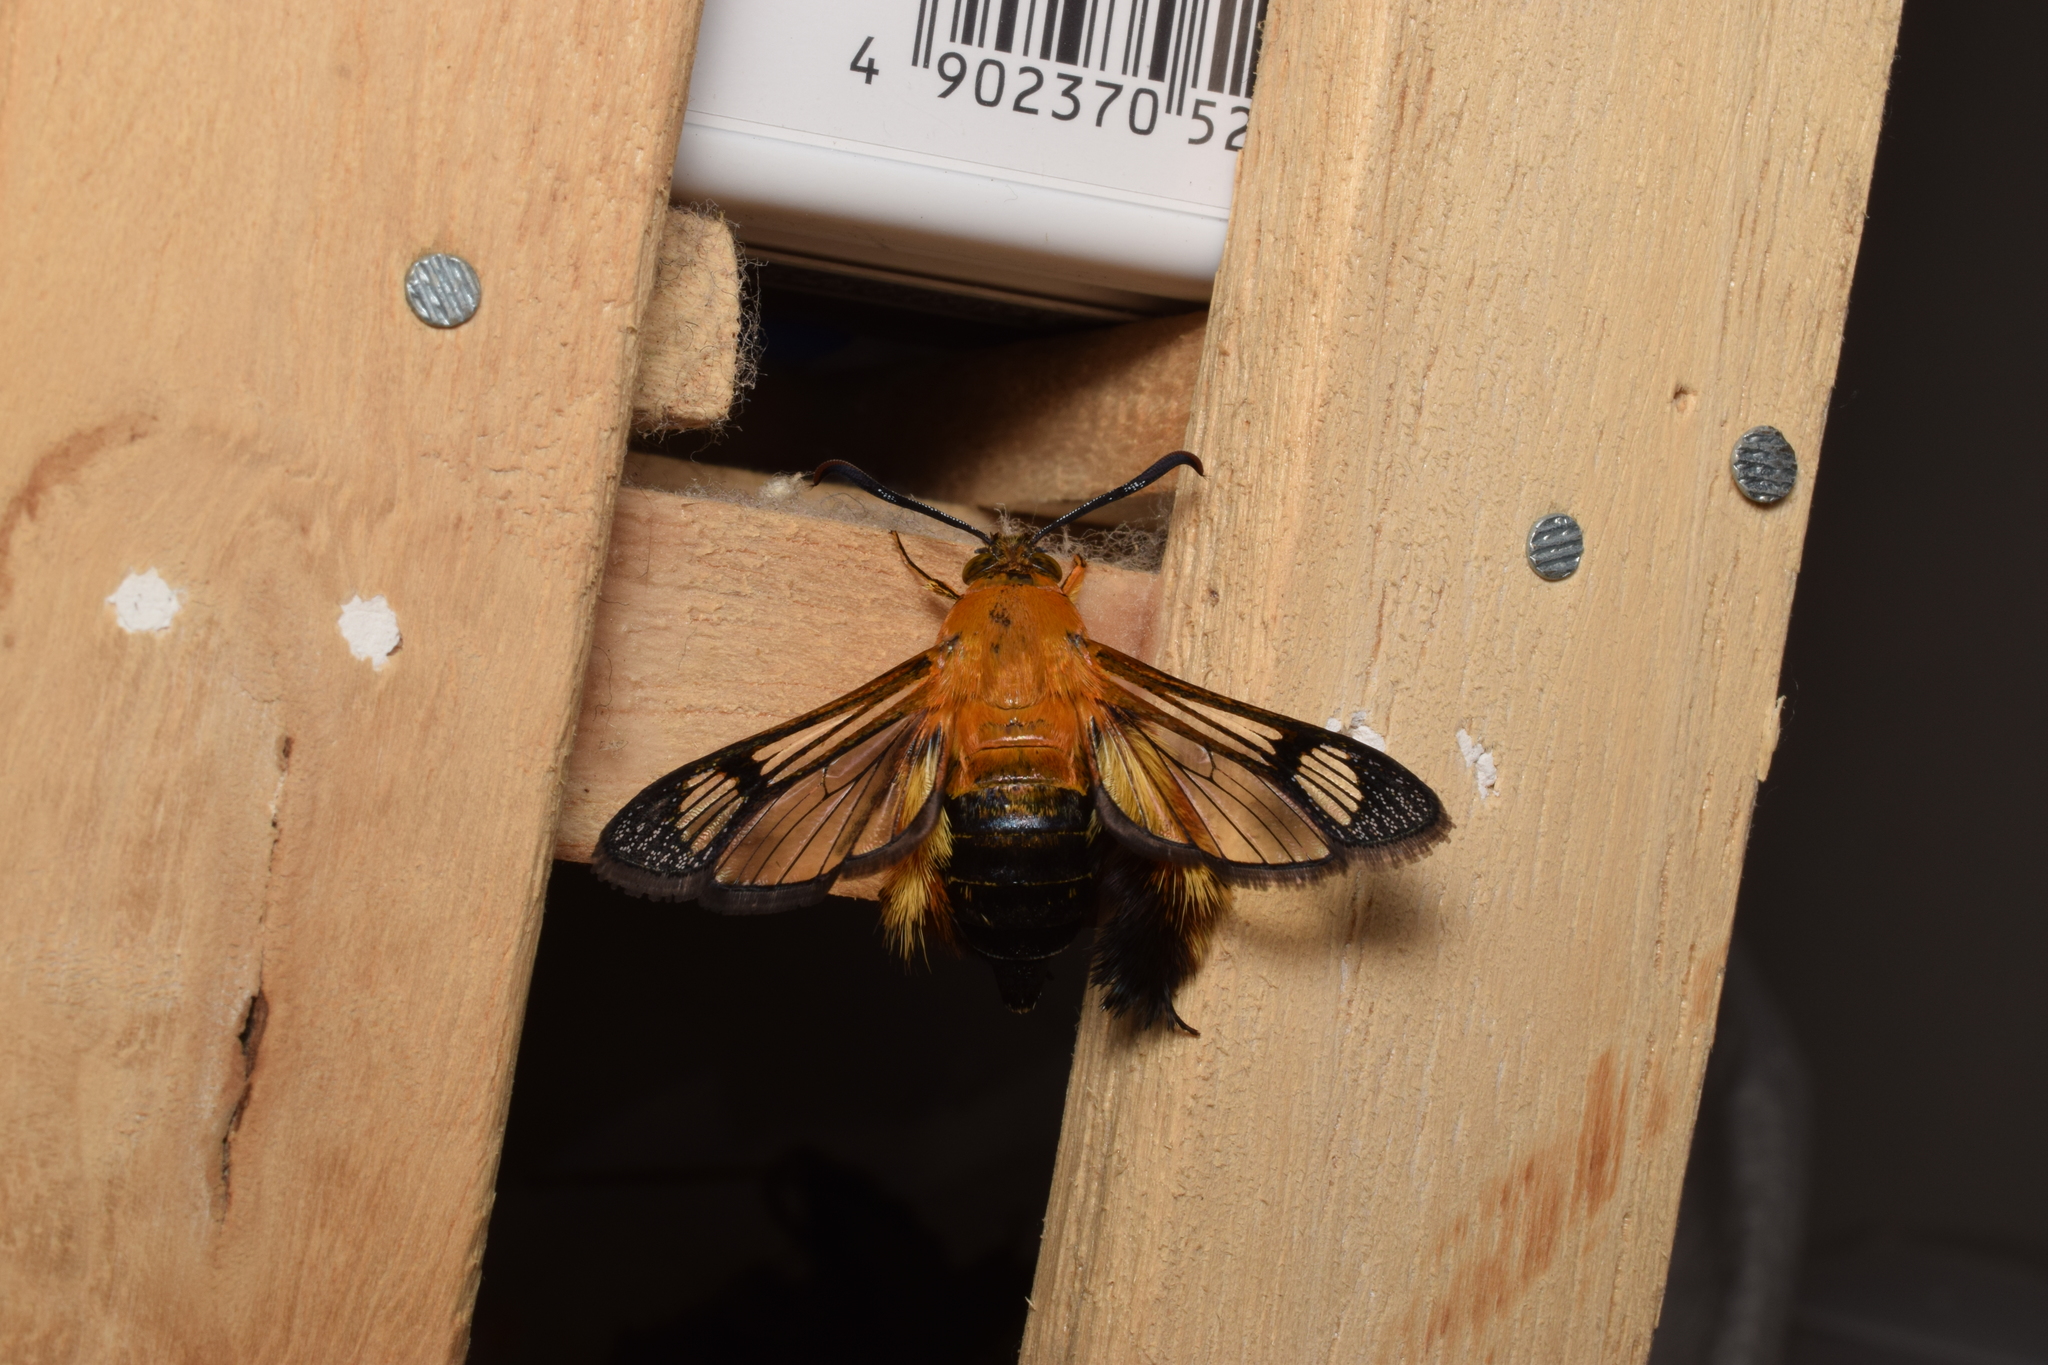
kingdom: Animalia
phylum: Arthropoda
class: Insecta
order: Lepidoptera
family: Sesiidae
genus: Melittia
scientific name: Melittia sangaica
